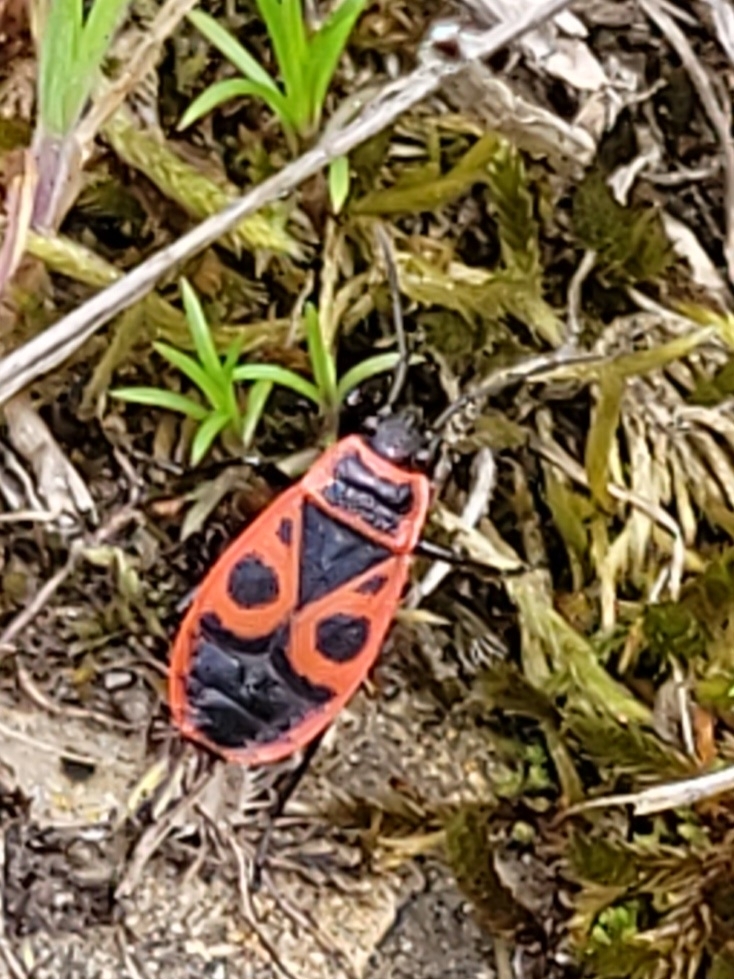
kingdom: Animalia
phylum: Arthropoda
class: Insecta
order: Hemiptera
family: Pyrrhocoridae
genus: Pyrrhocoris
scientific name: Pyrrhocoris apterus
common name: Firebug
